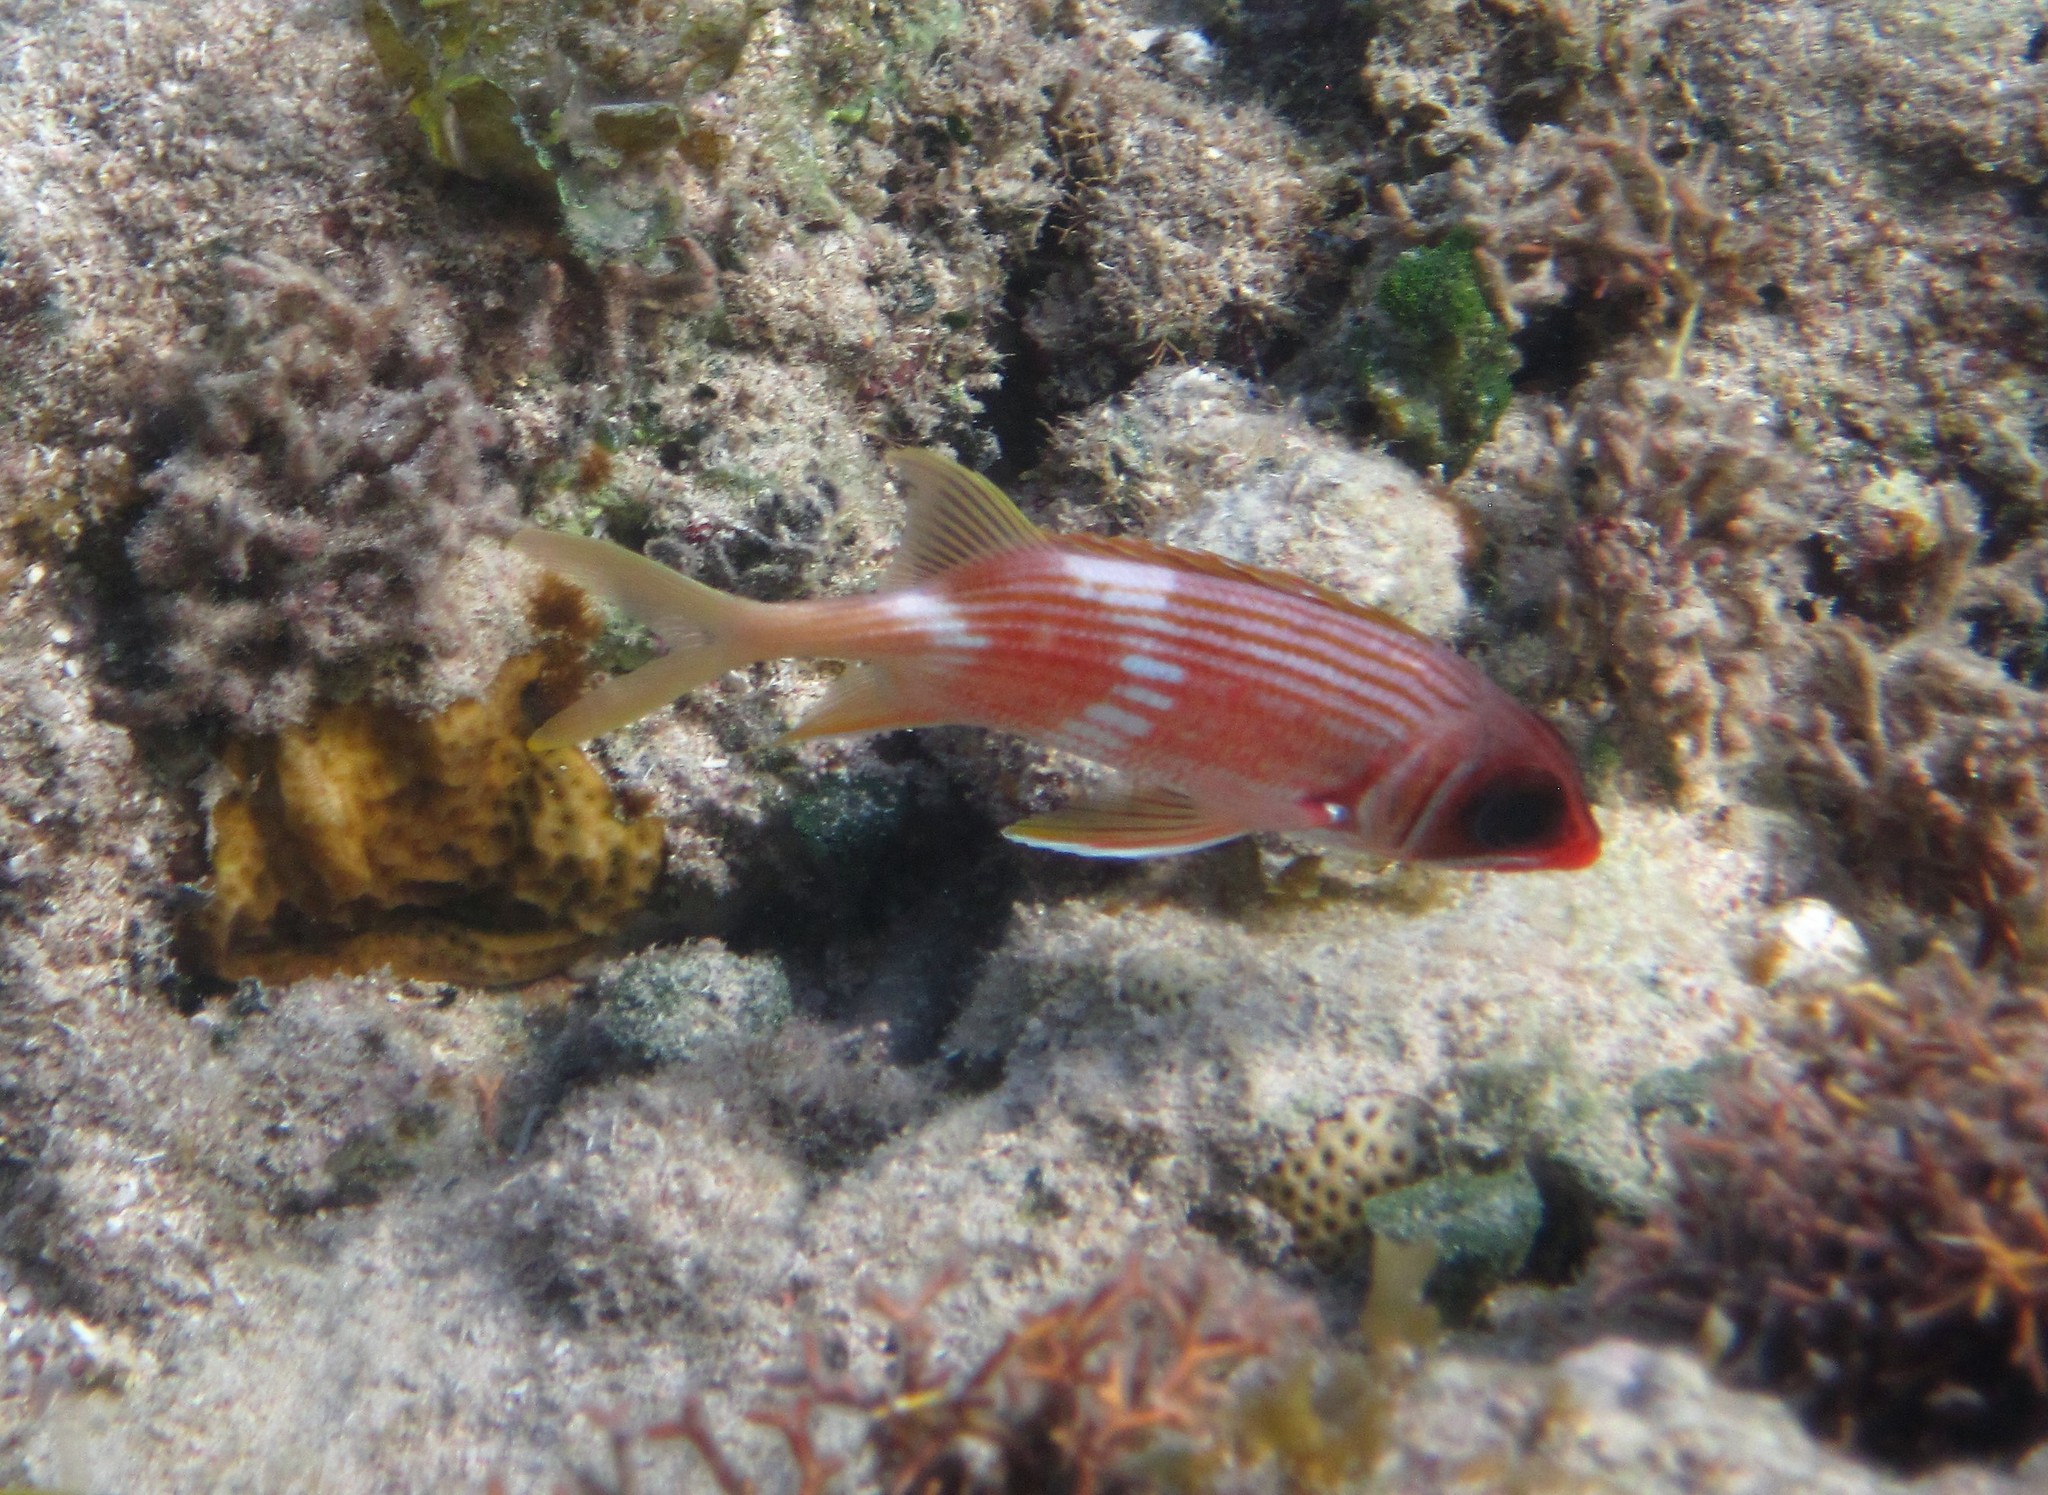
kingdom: Animalia
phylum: Chordata
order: Beryciformes
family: Holocentridae
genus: Holocentrus
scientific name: Holocentrus adscensionis
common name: Squirrelfish
